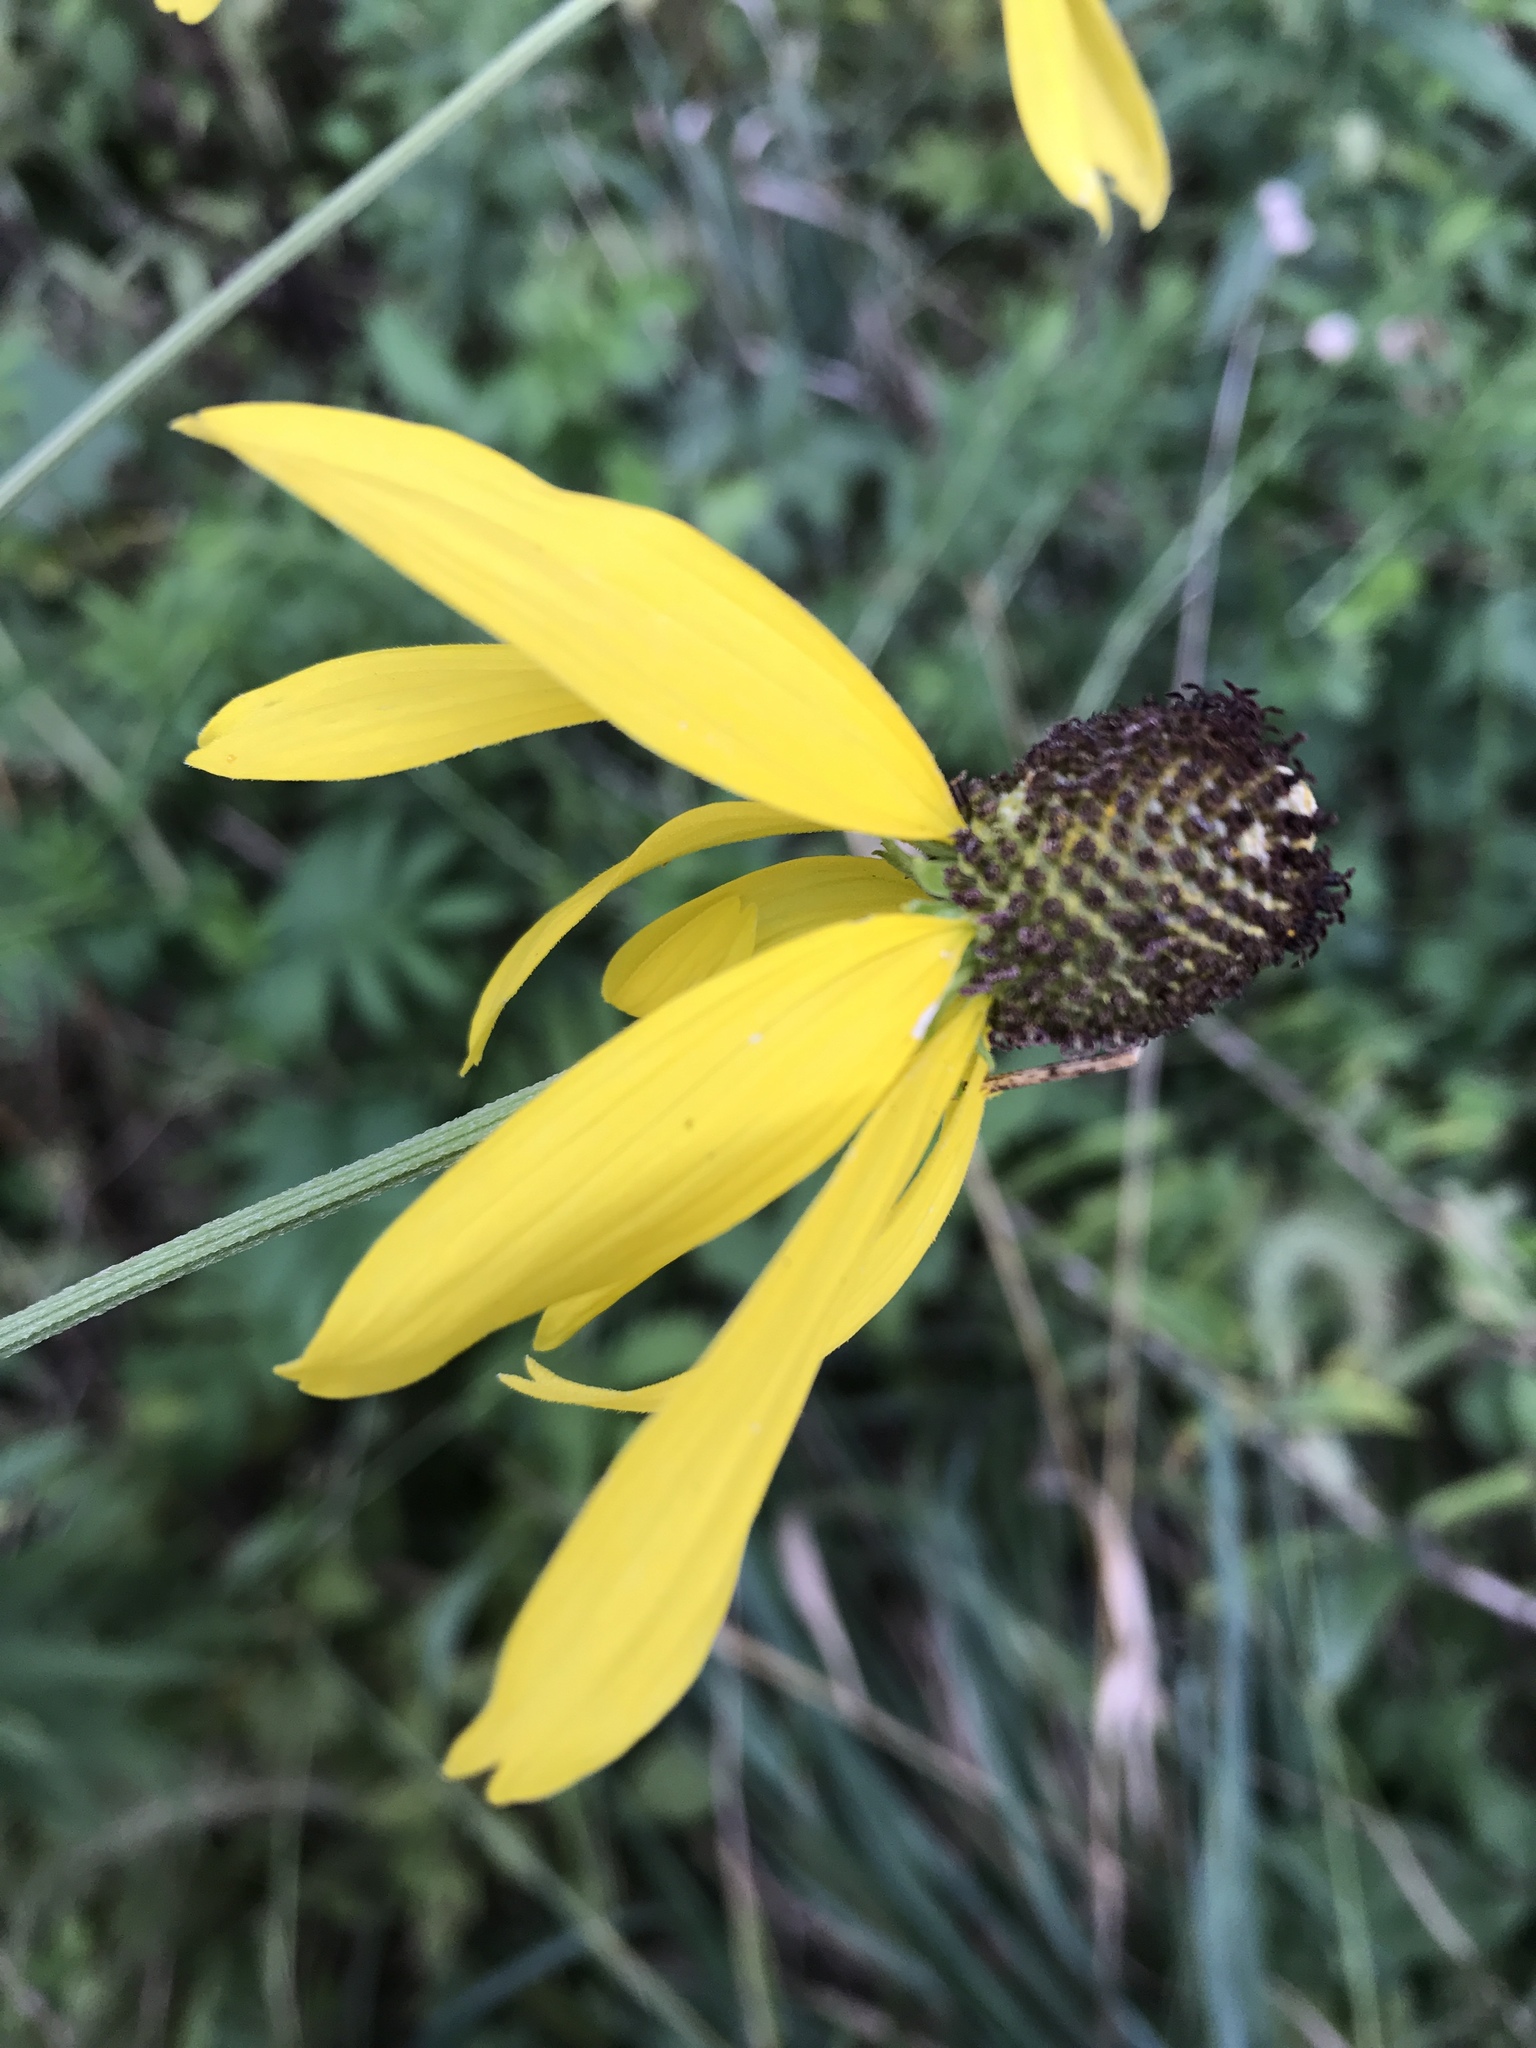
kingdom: Plantae
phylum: Tracheophyta
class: Magnoliopsida
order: Asterales
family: Asteraceae
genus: Ratibida
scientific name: Ratibida pinnata
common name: Drooping prairie-coneflower
